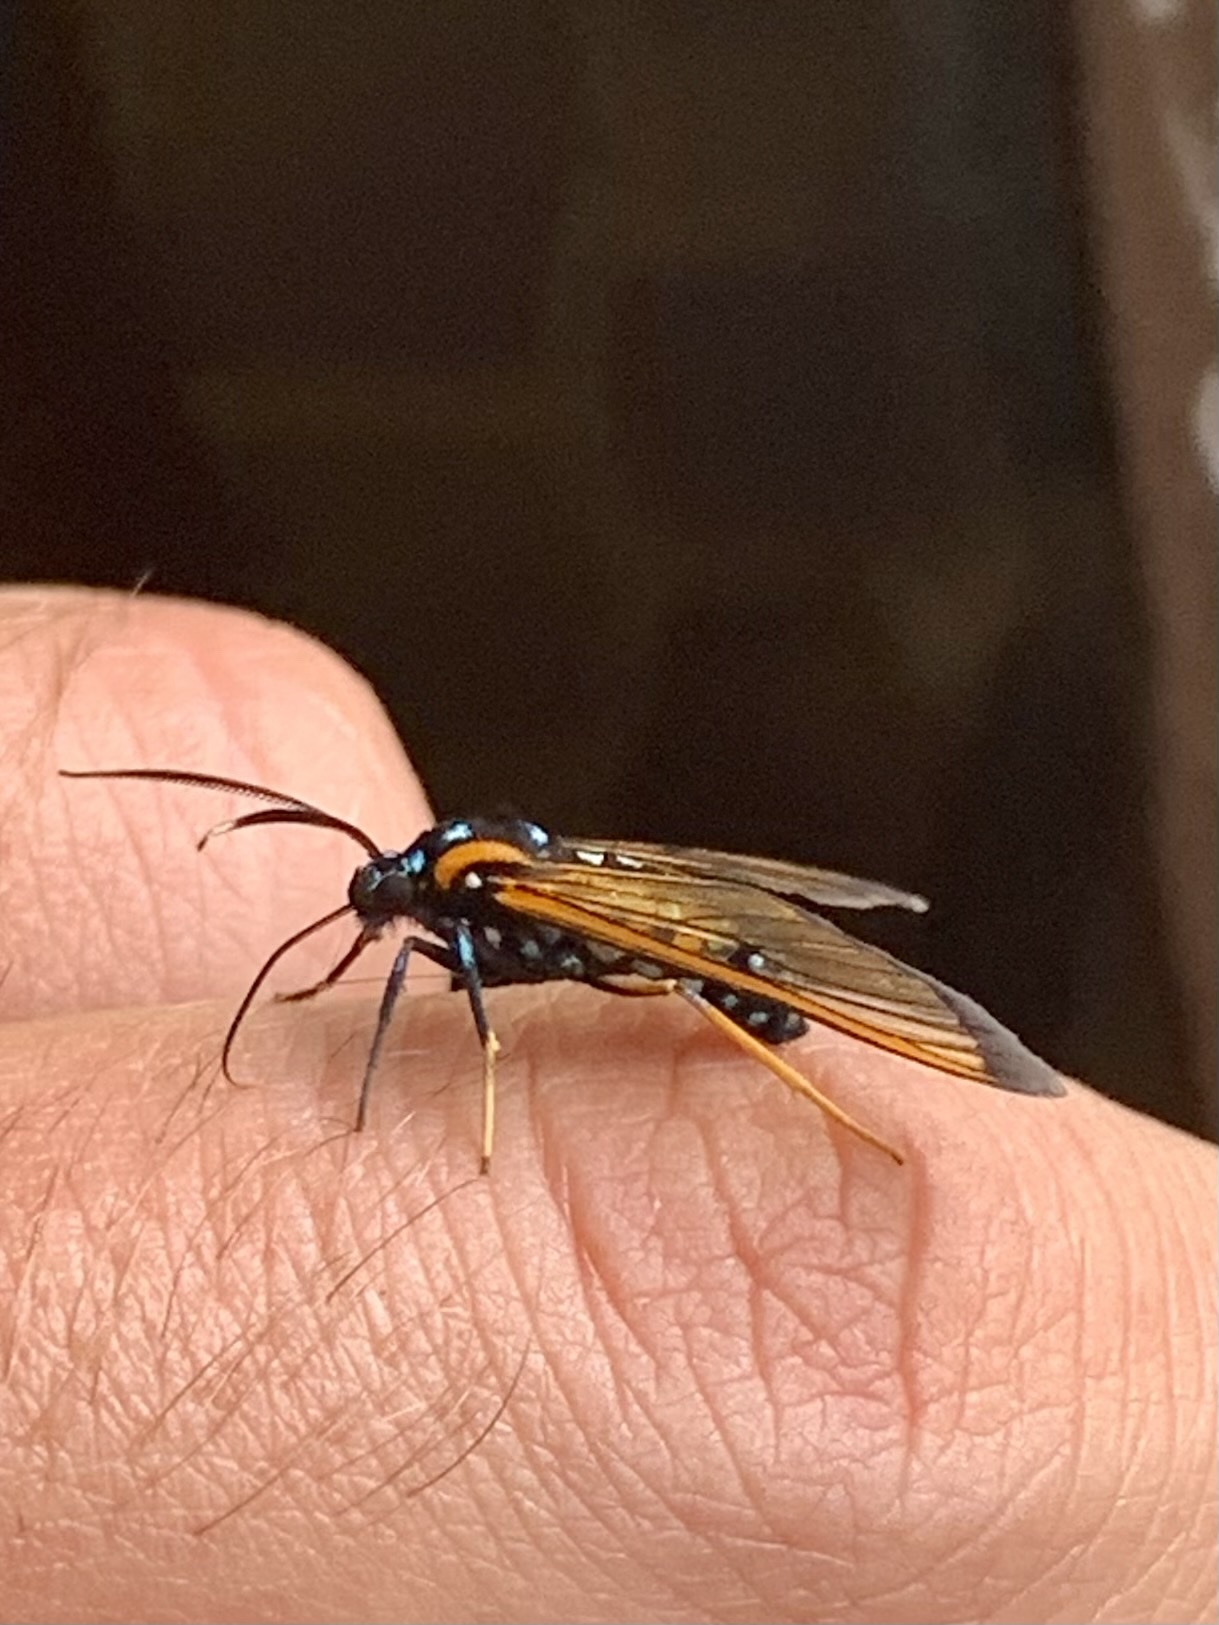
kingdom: Animalia
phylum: Arthropoda
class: Insecta
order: Lepidoptera
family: Erebidae
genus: Cosmosoma
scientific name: Cosmosoma joavana
